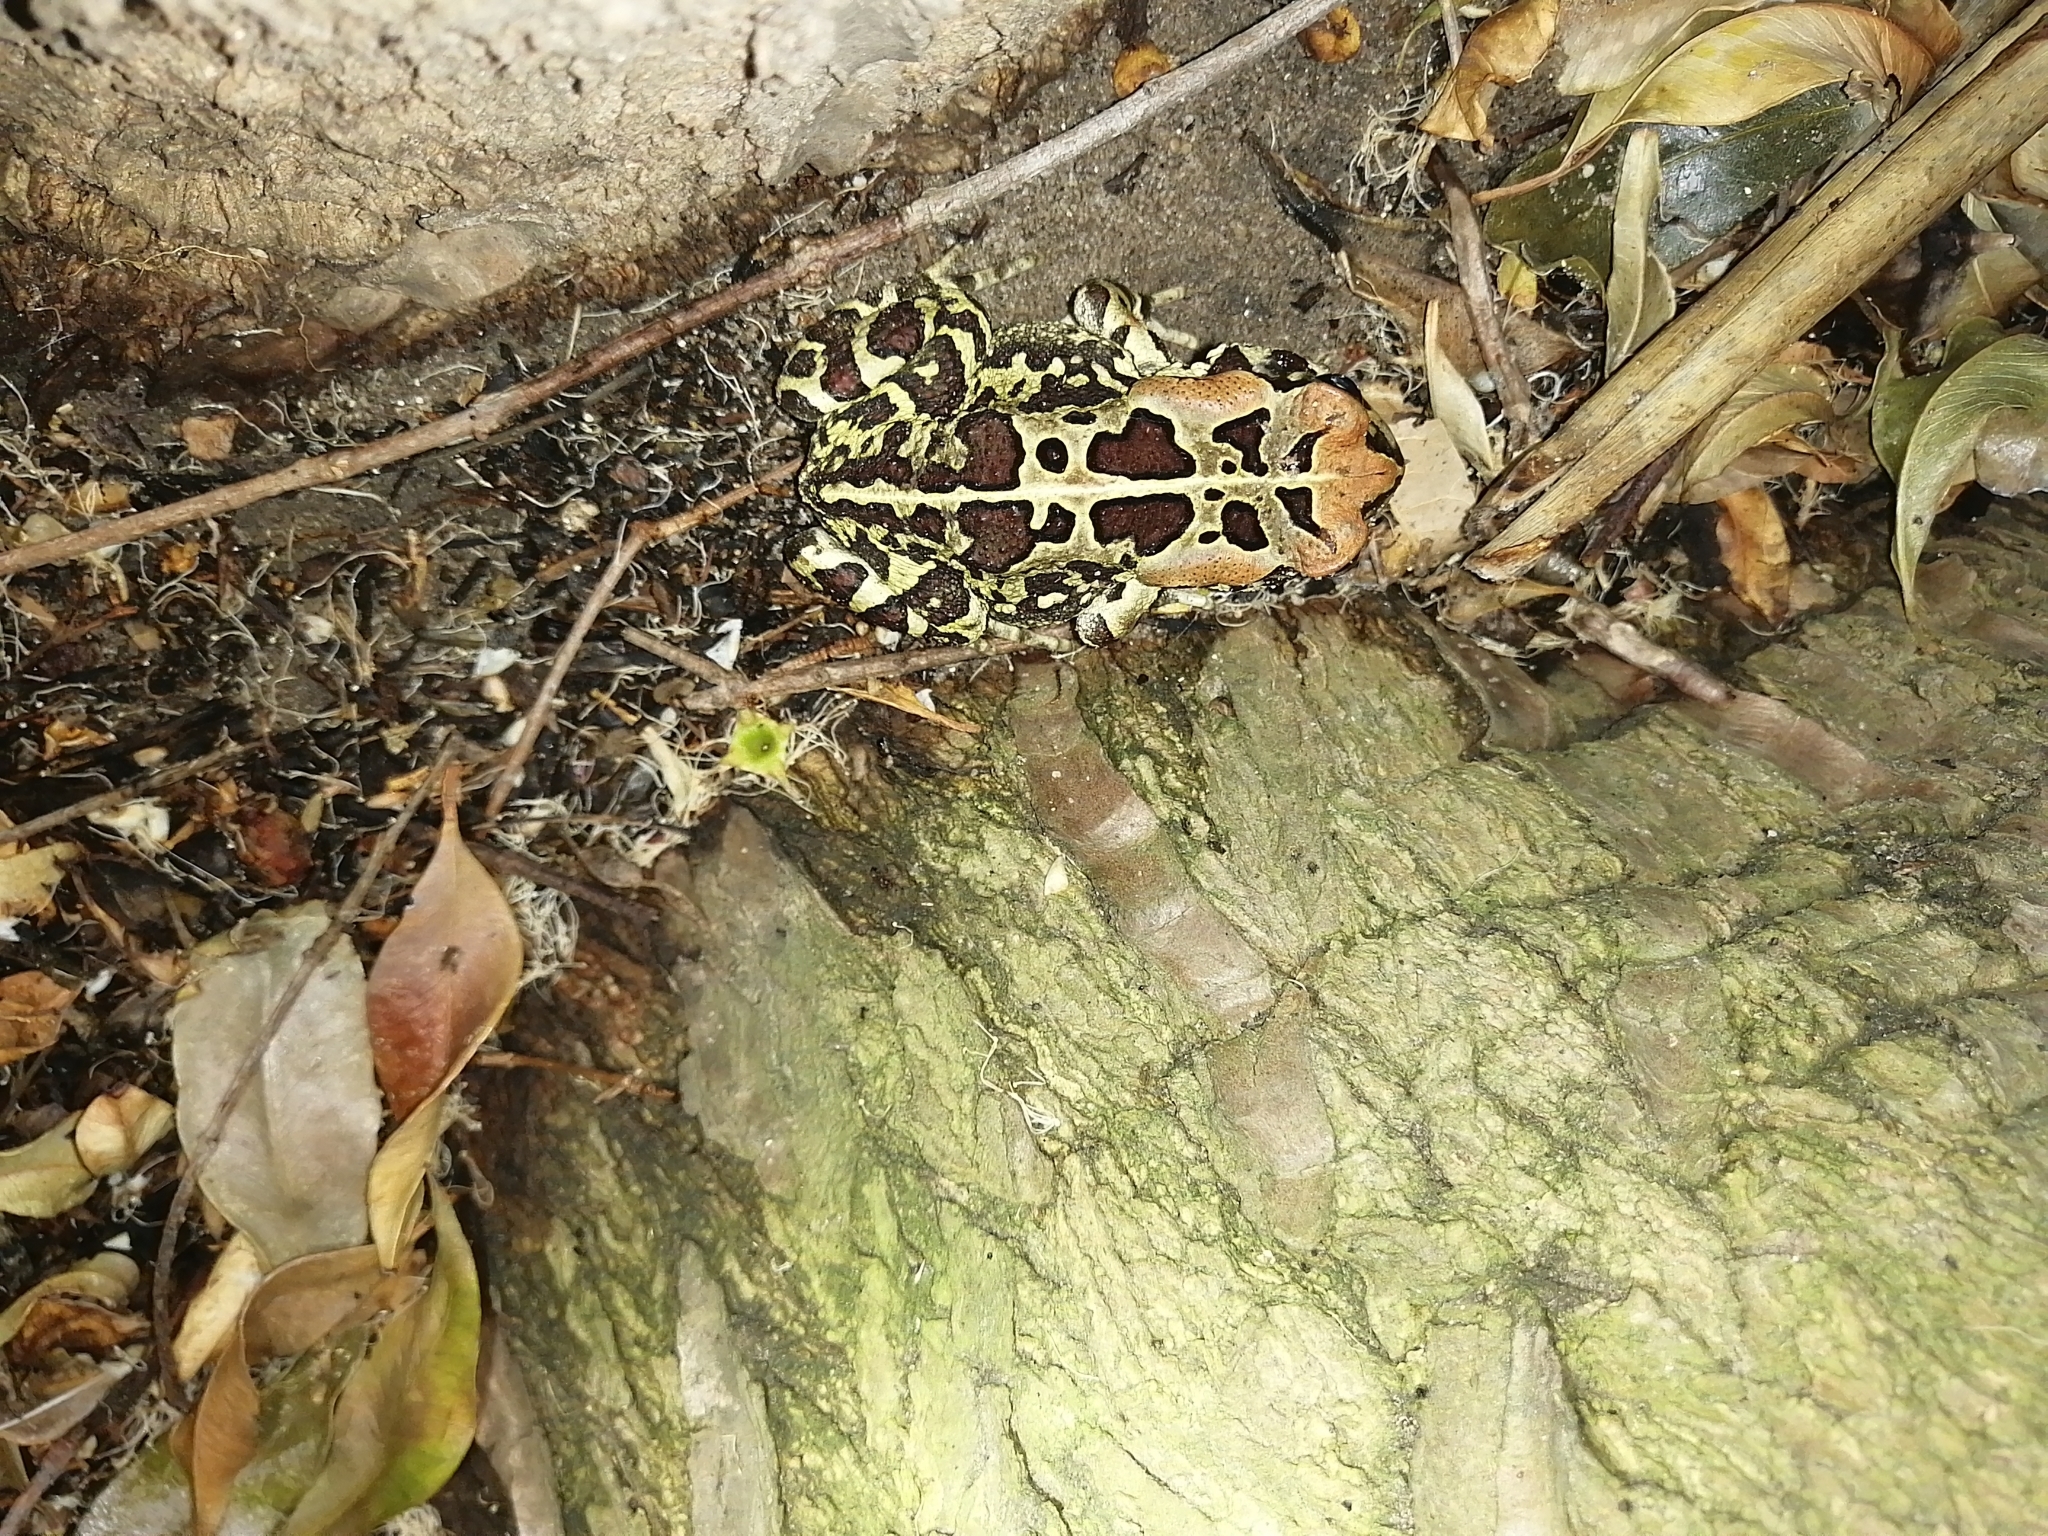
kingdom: Animalia
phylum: Chordata
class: Amphibia
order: Anura
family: Bufonidae
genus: Sclerophrys
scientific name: Sclerophrys pantherina
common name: Panther toad
